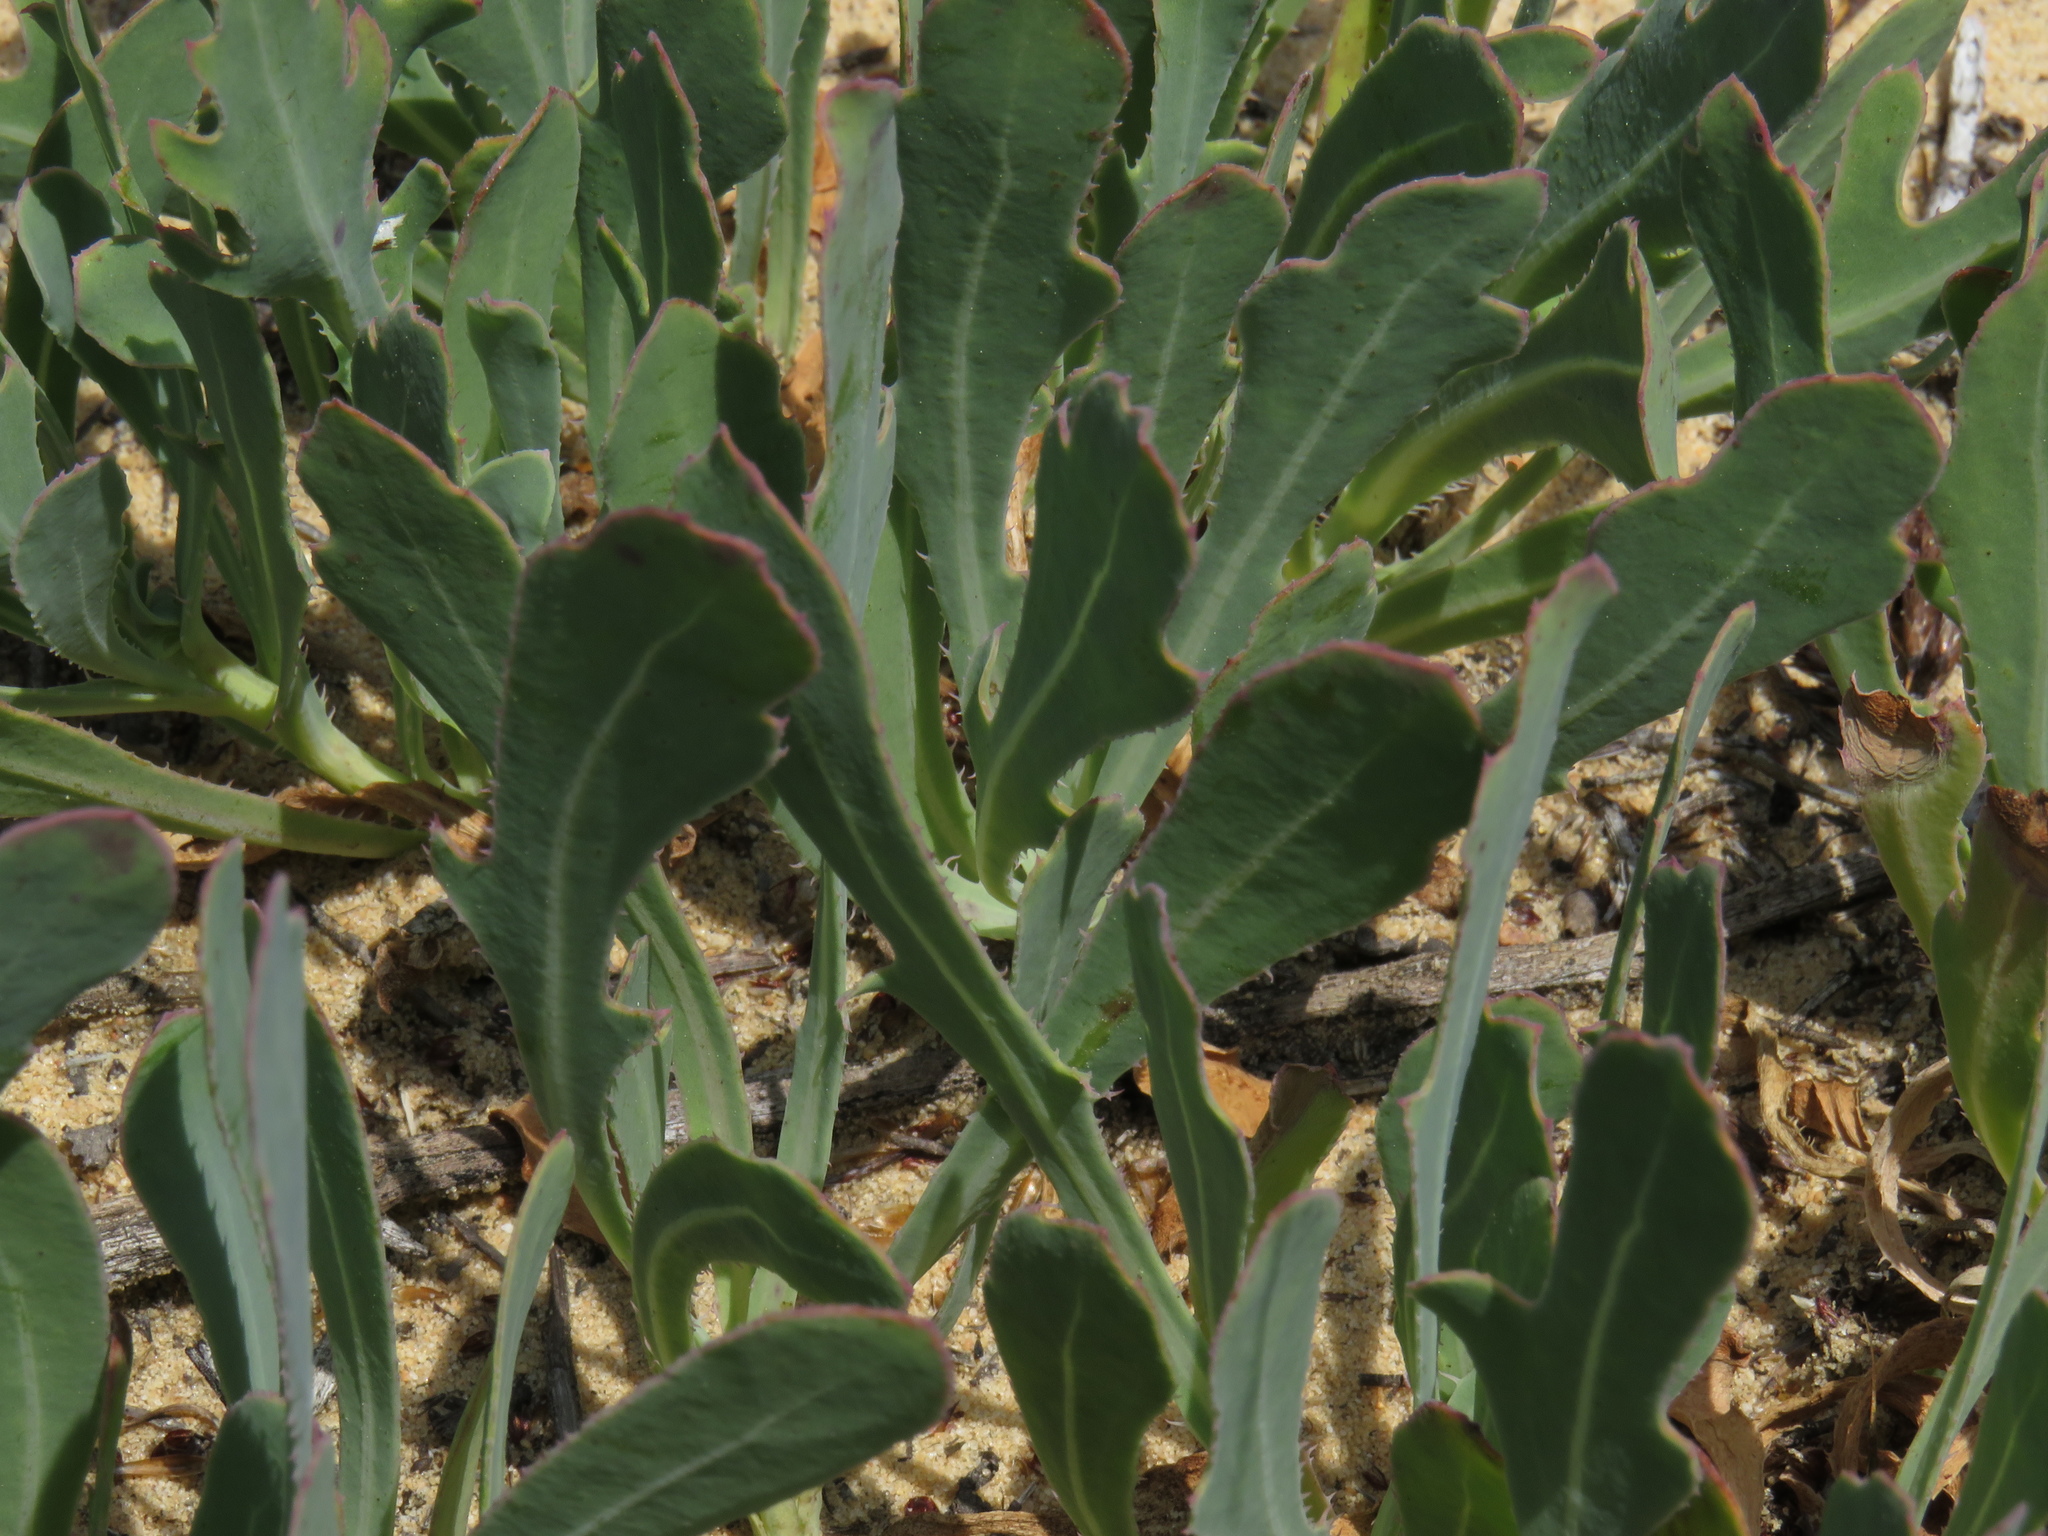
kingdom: Plantae
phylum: Tracheophyta
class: Magnoliopsida
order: Asterales
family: Asteraceae
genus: Othonna
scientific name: Othonna ciliata
